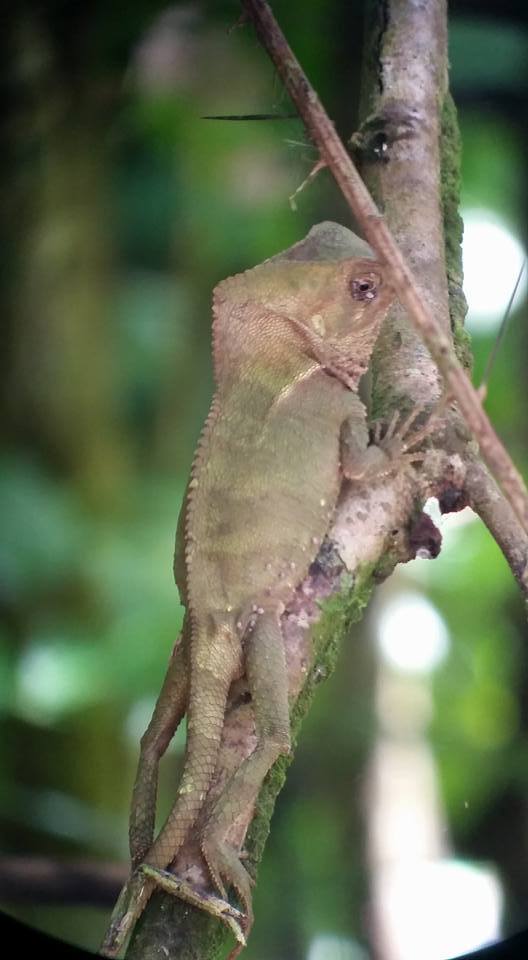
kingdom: Animalia
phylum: Chordata
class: Squamata
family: Corytophanidae
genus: Corytophanes
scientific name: Corytophanes cristatus
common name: Smooth helmeted iguana
